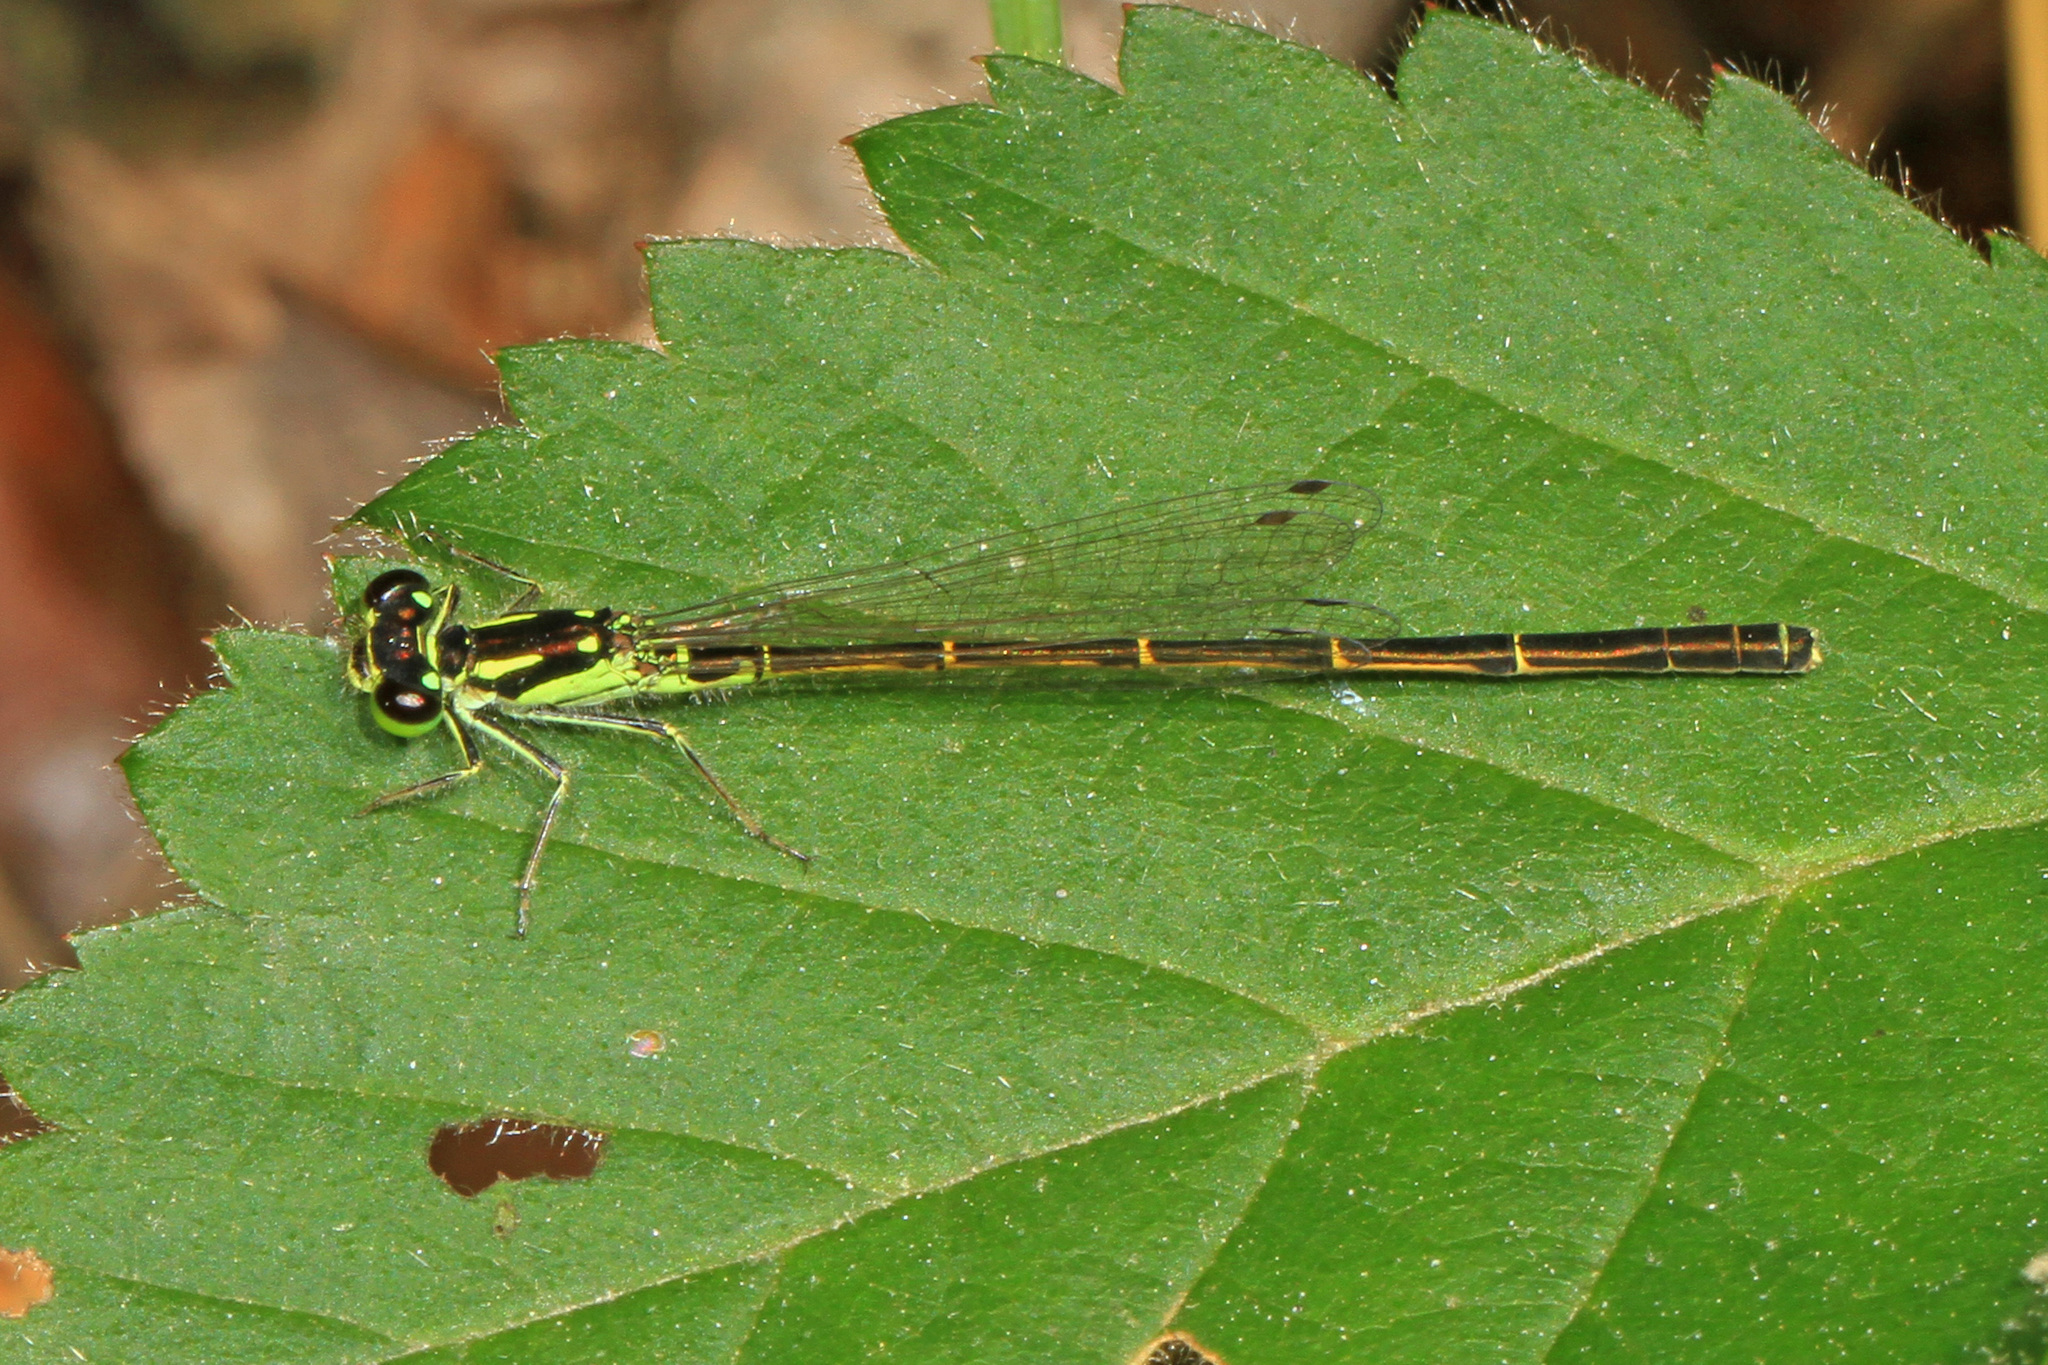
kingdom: Animalia
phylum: Arthropoda
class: Insecta
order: Odonata
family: Coenagrionidae
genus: Ischnura
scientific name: Ischnura posita
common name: Fragile forktail
